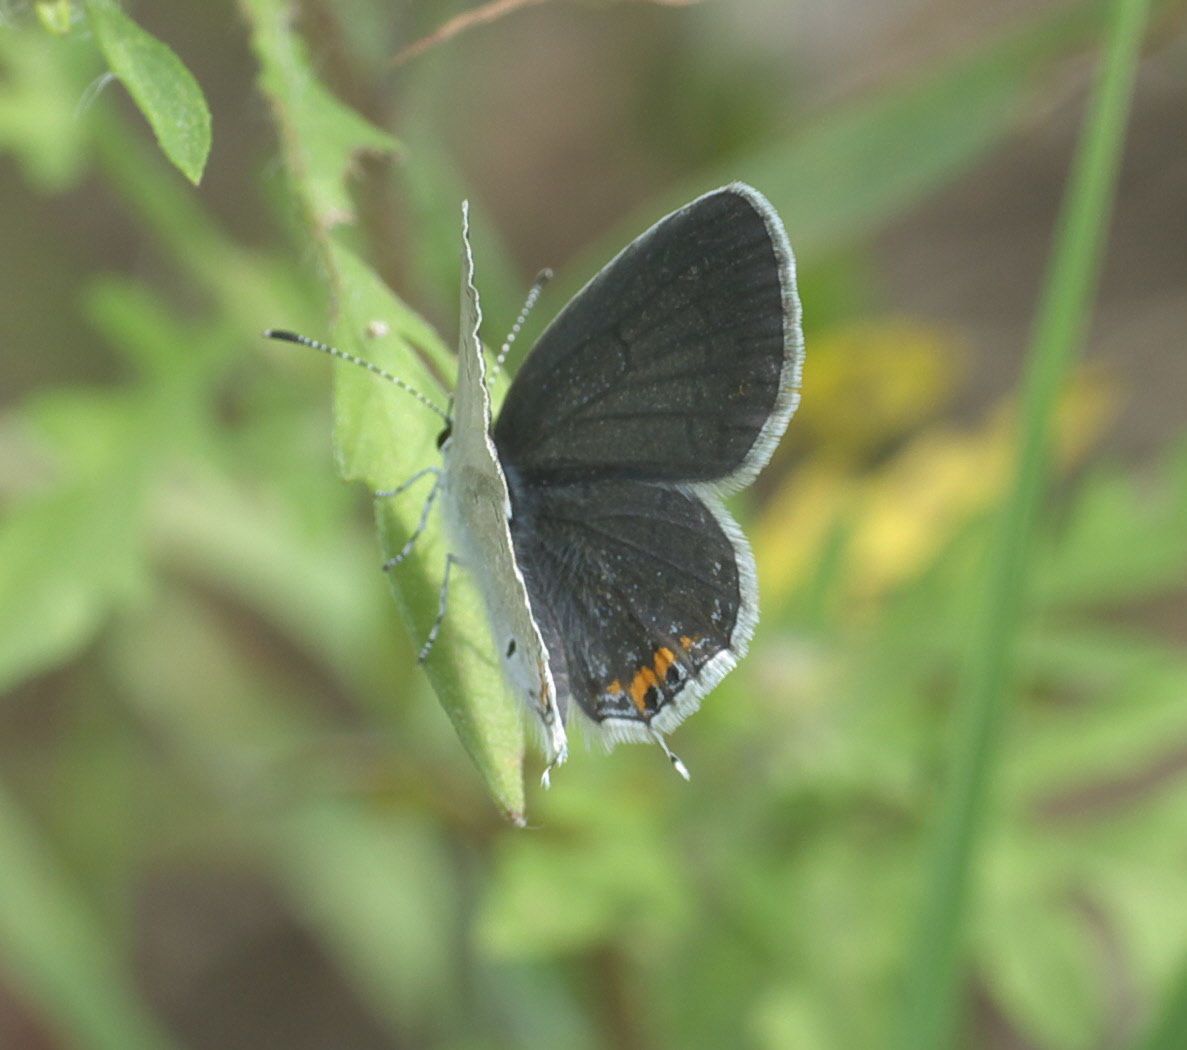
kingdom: Animalia
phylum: Arthropoda
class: Insecta
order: Lepidoptera
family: Lycaenidae
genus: Elkalyce
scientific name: Elkalyce comyntas
